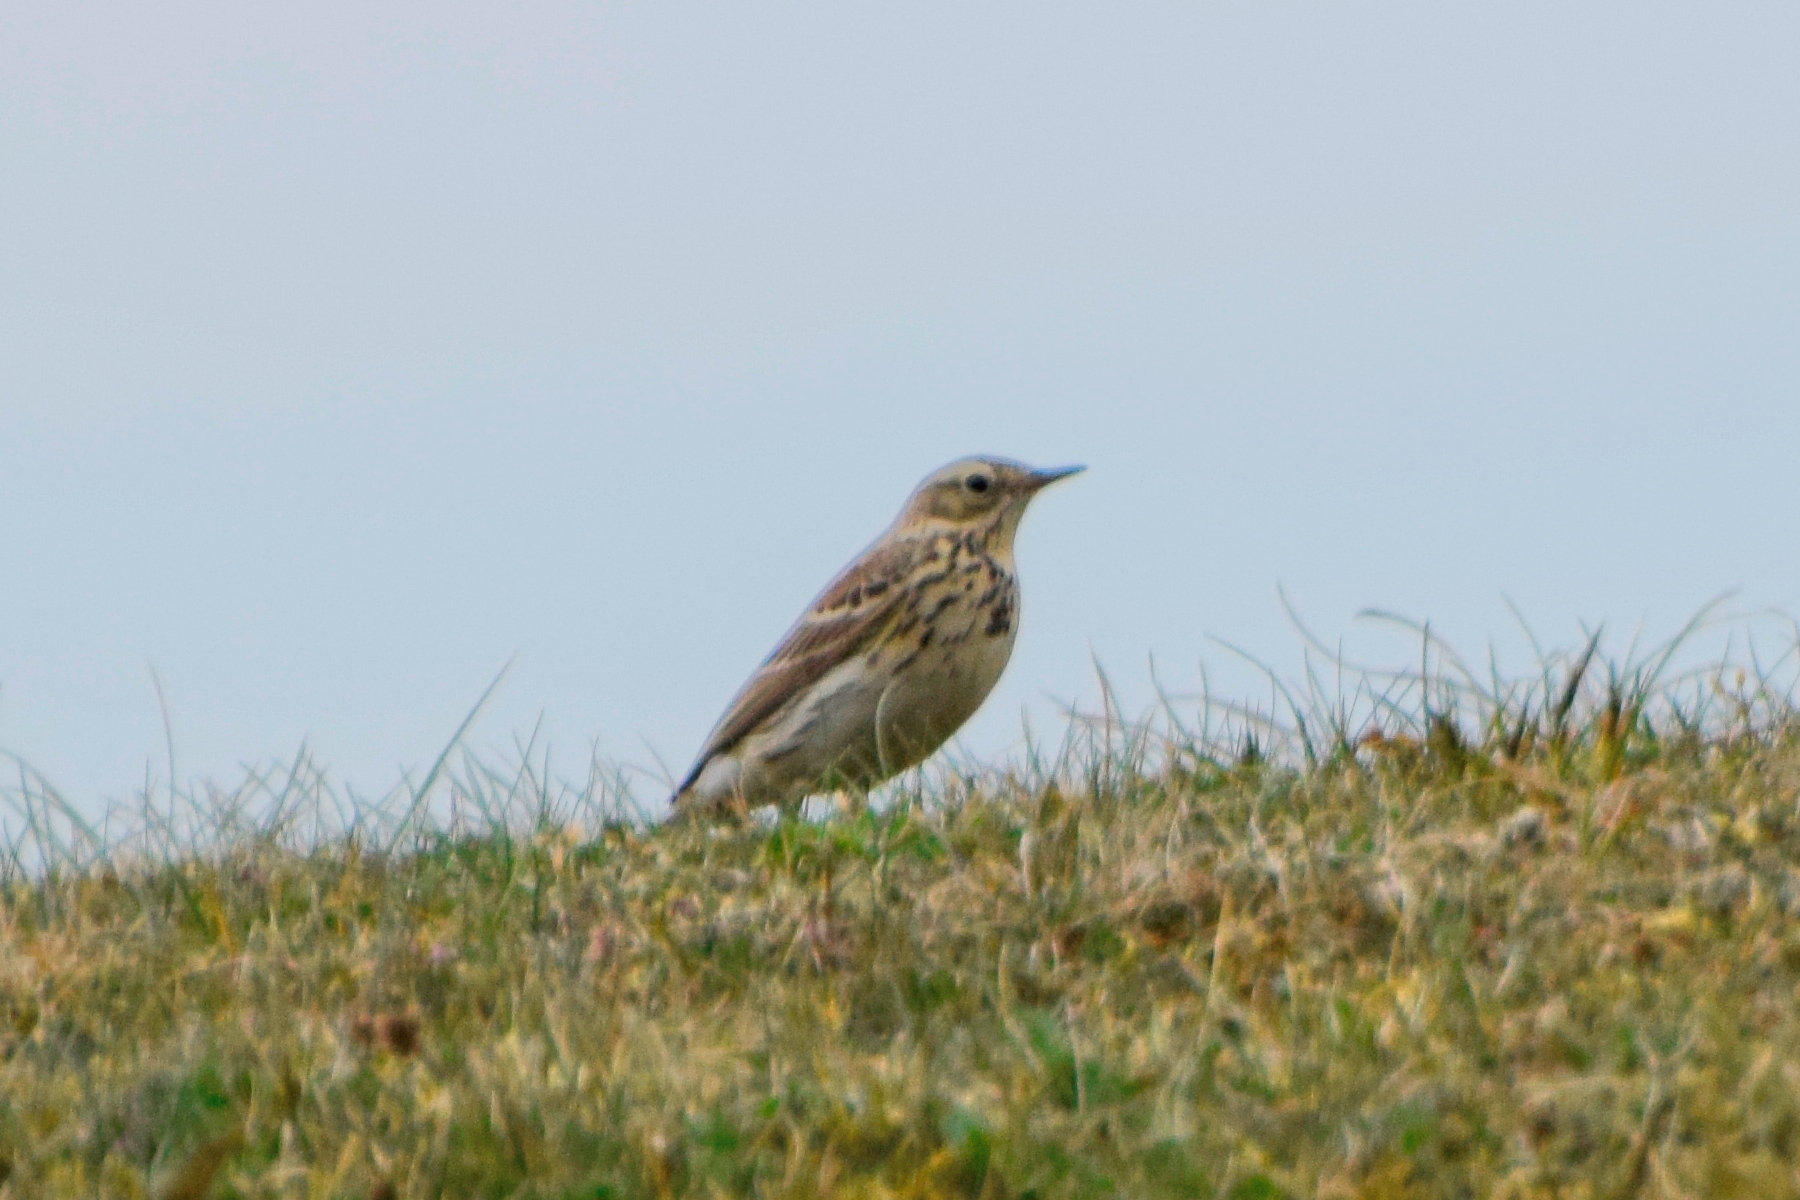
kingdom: Animalia
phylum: Chordata
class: Aves
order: Passeriformes
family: Motacillidae
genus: Anthus
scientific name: Anthus pratensis
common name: Meadow pipit
